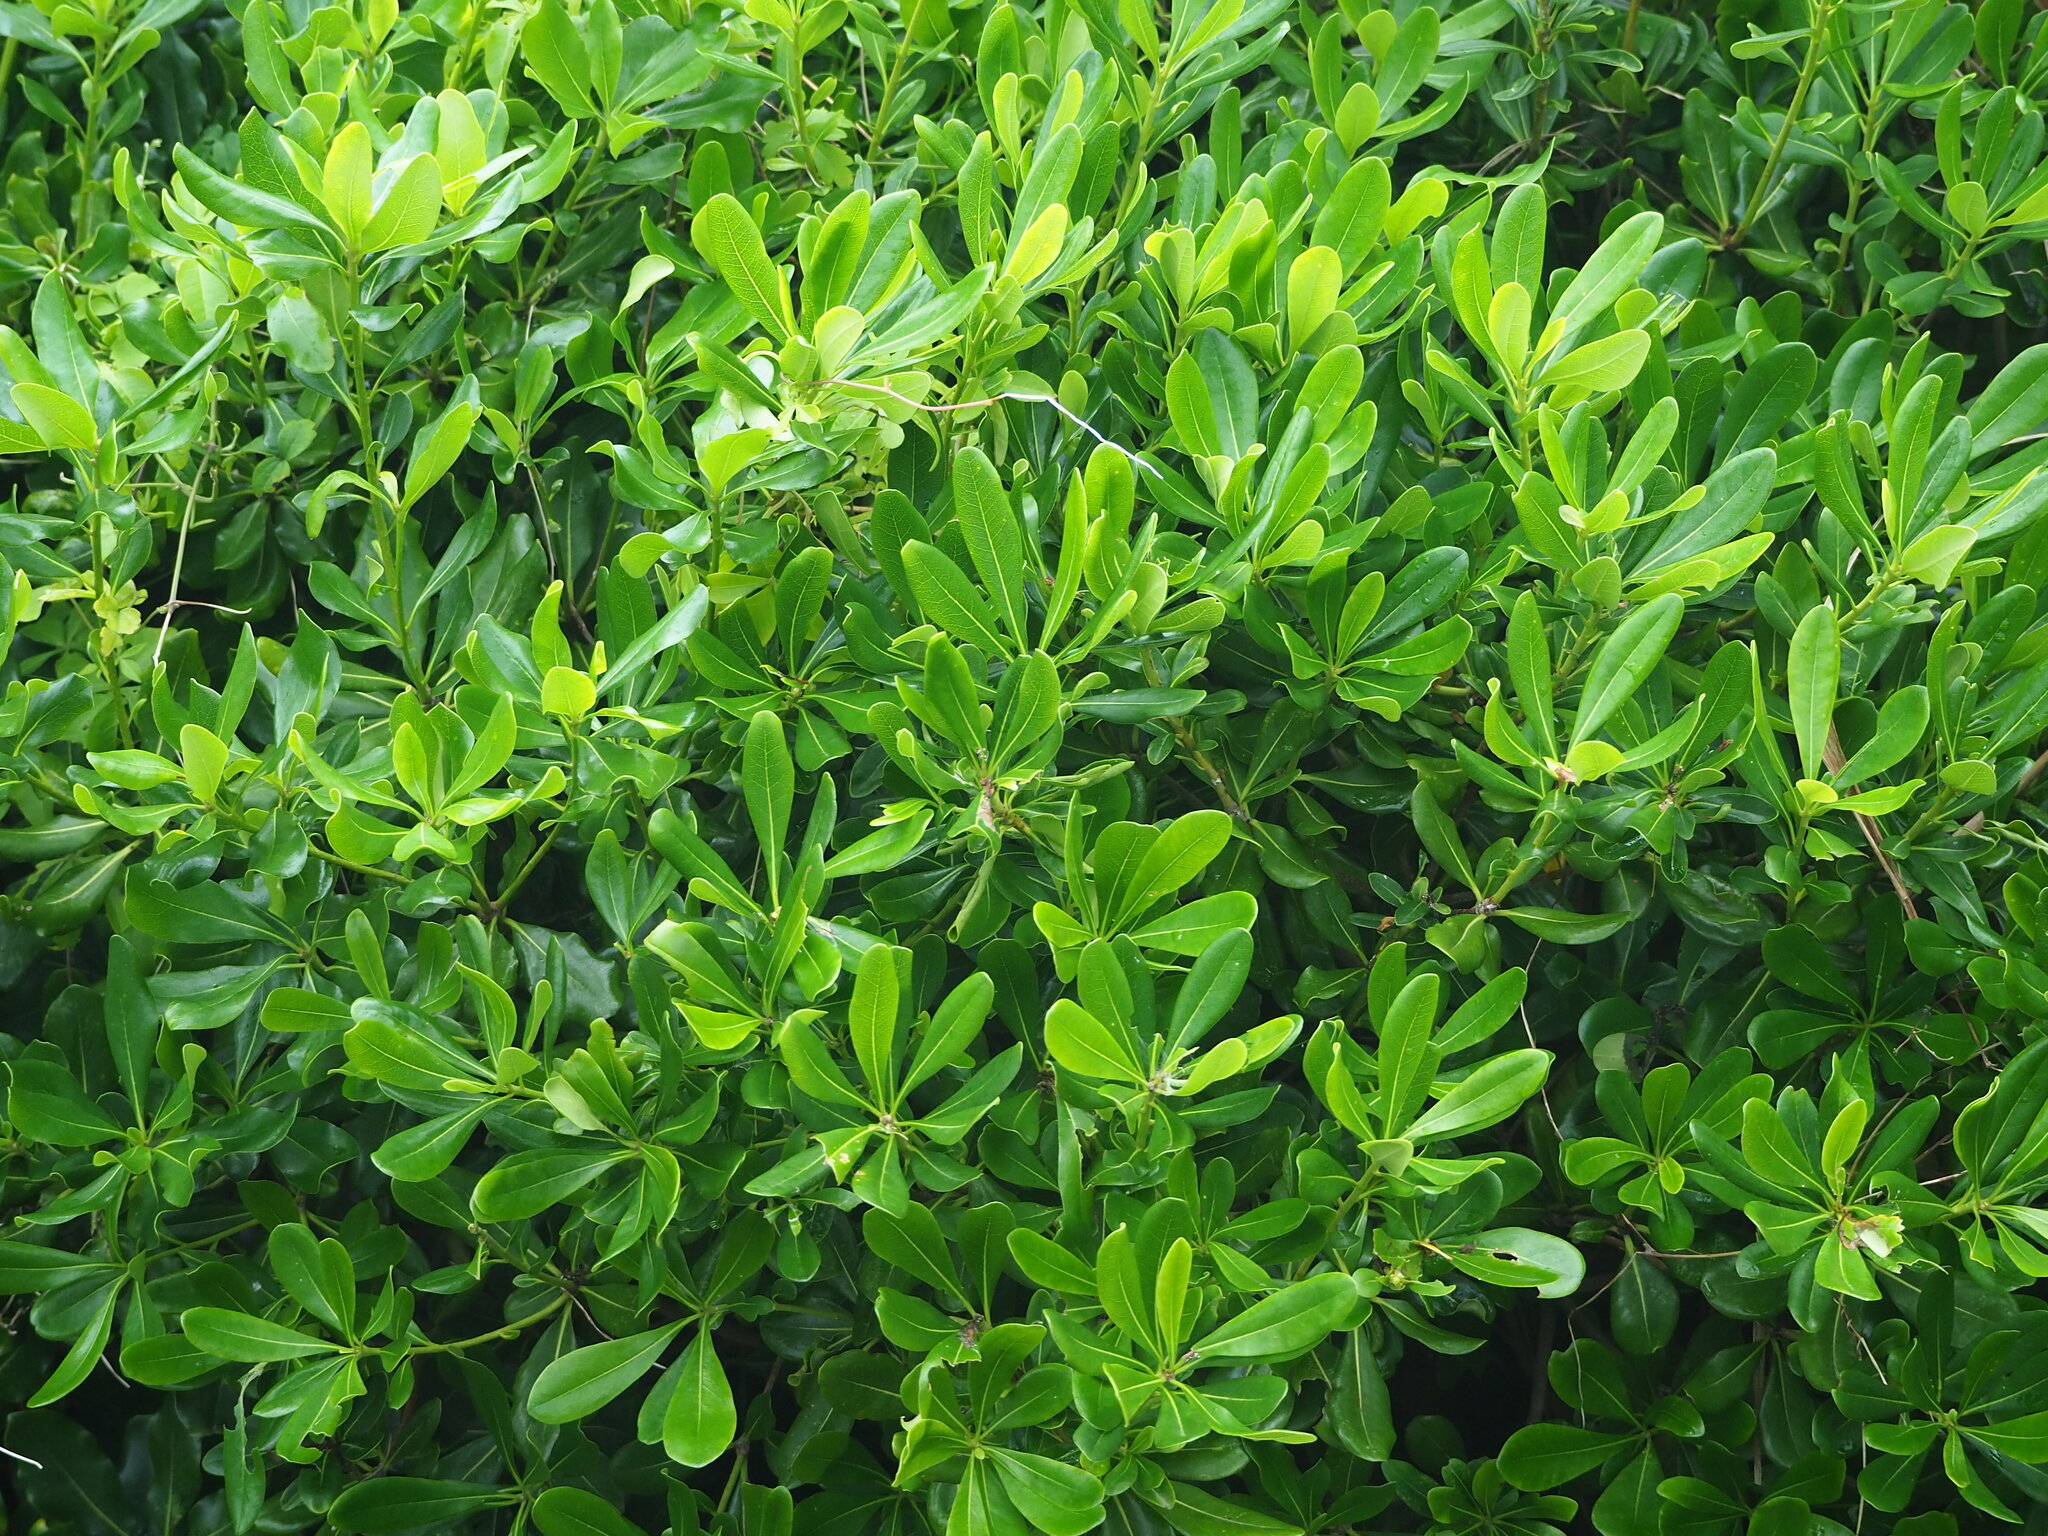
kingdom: Plantae
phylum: Tracheophyta
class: Magnoliopsida
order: Apiales
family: Pittosporaceae
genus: Pittosporum
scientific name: Pittosporum tobira
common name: Japanese cheesewood
